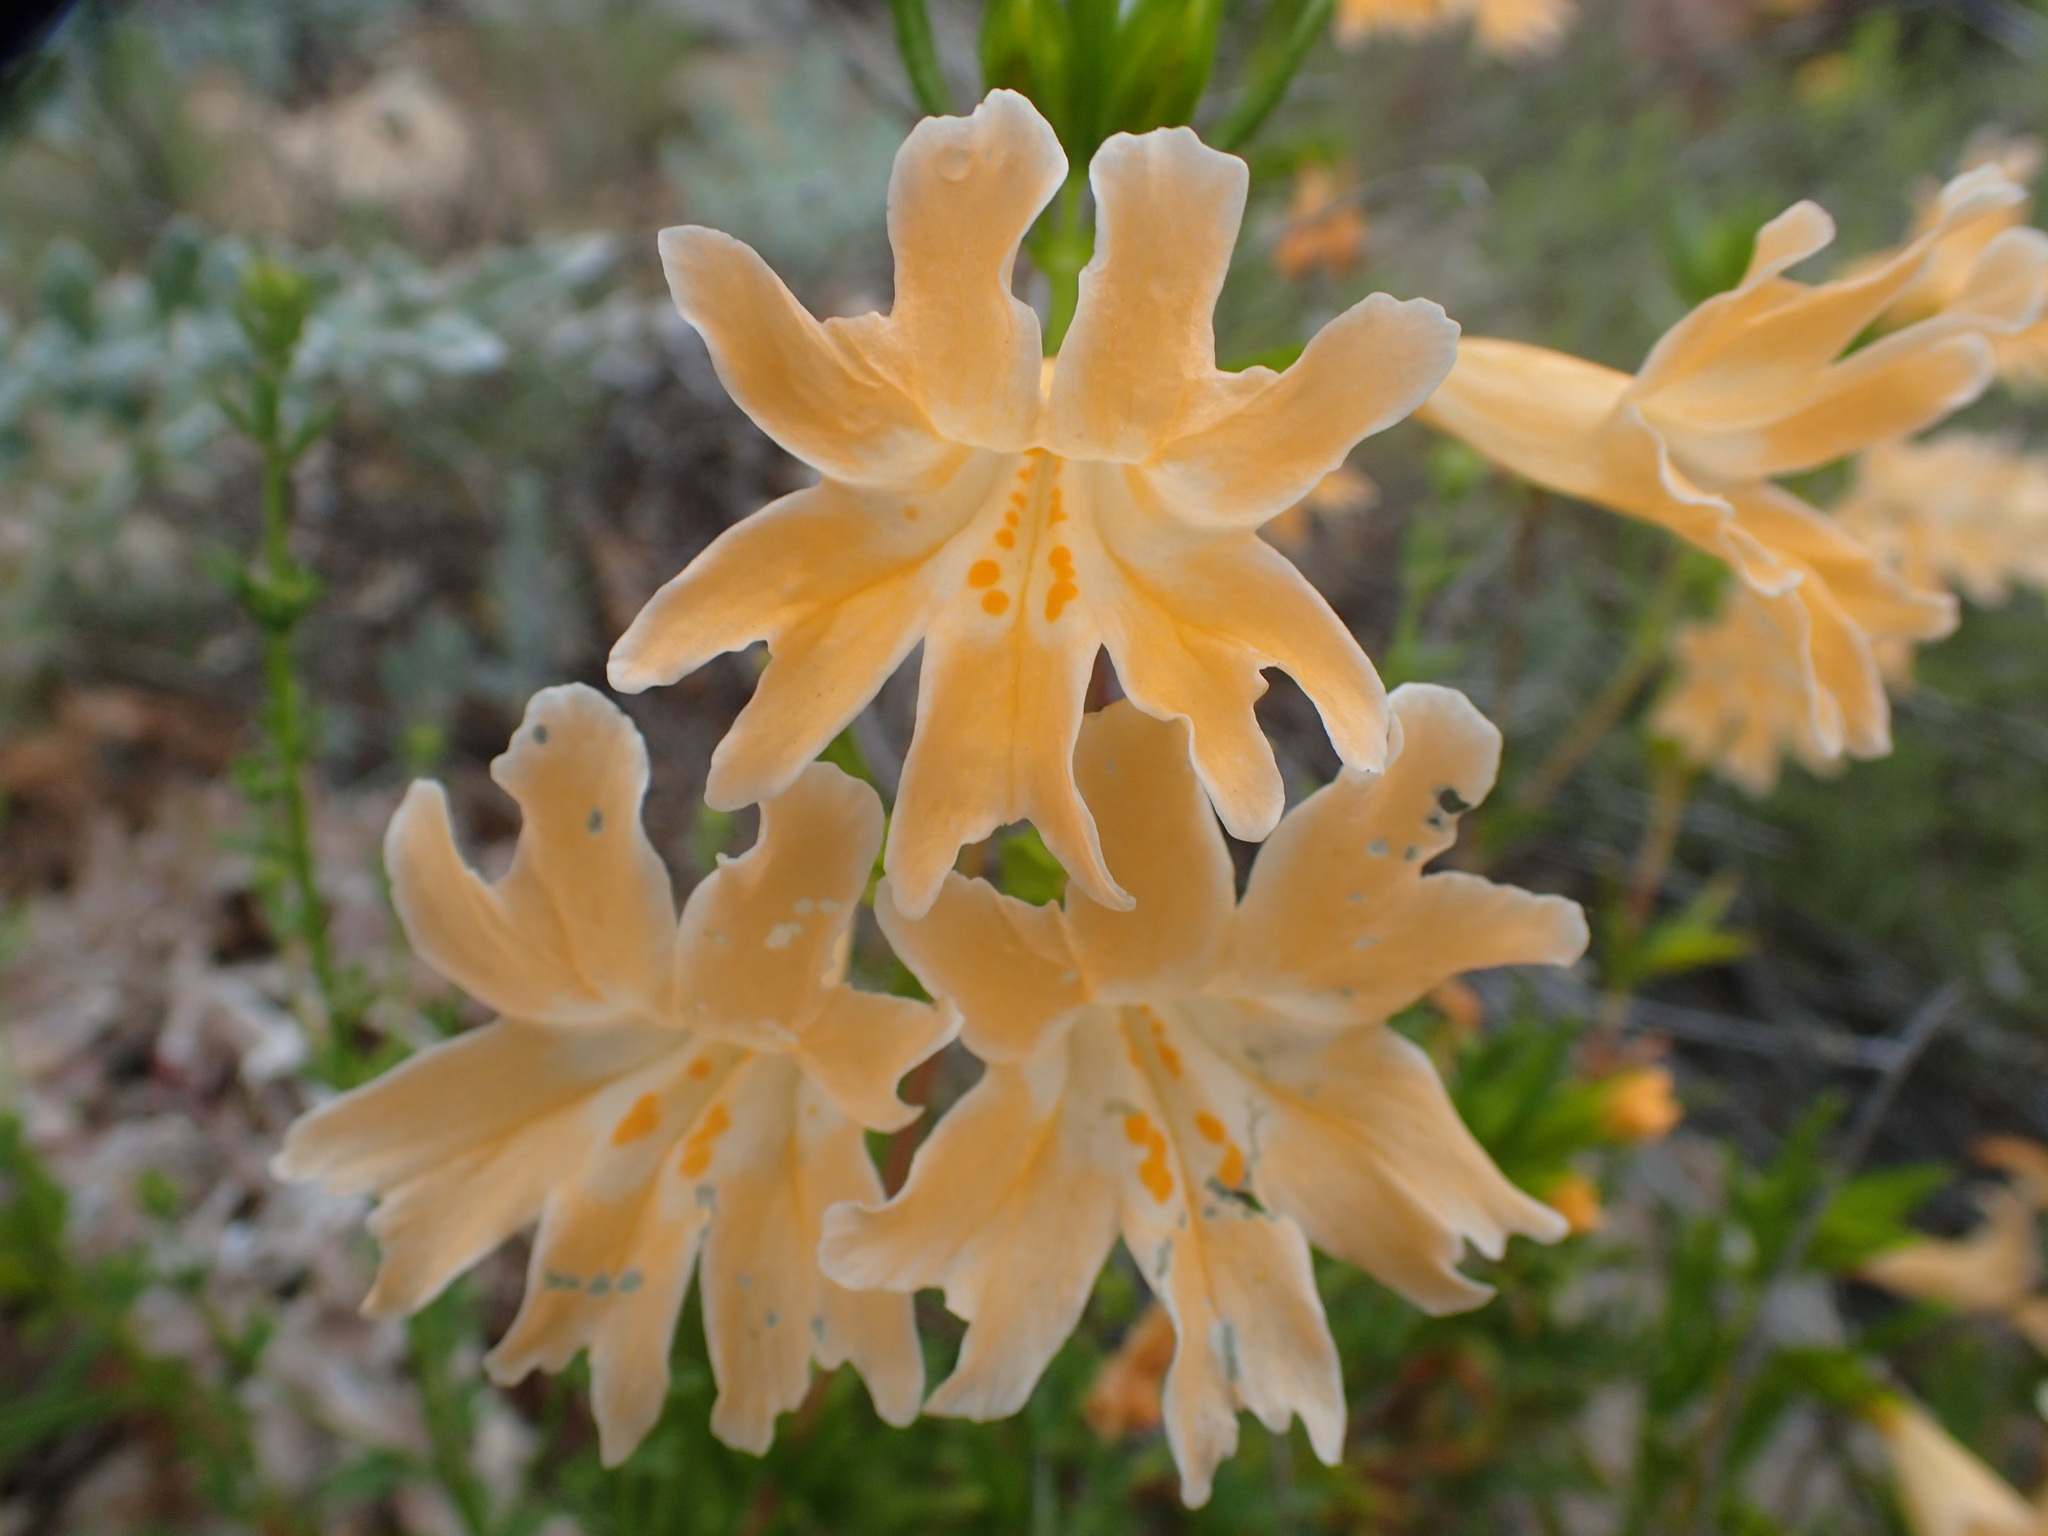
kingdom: Plantae
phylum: Tracheophyta
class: Magnoliopsida
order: Lamiales
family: Phrymaceae
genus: Diplacus
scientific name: Diplacus linearis
